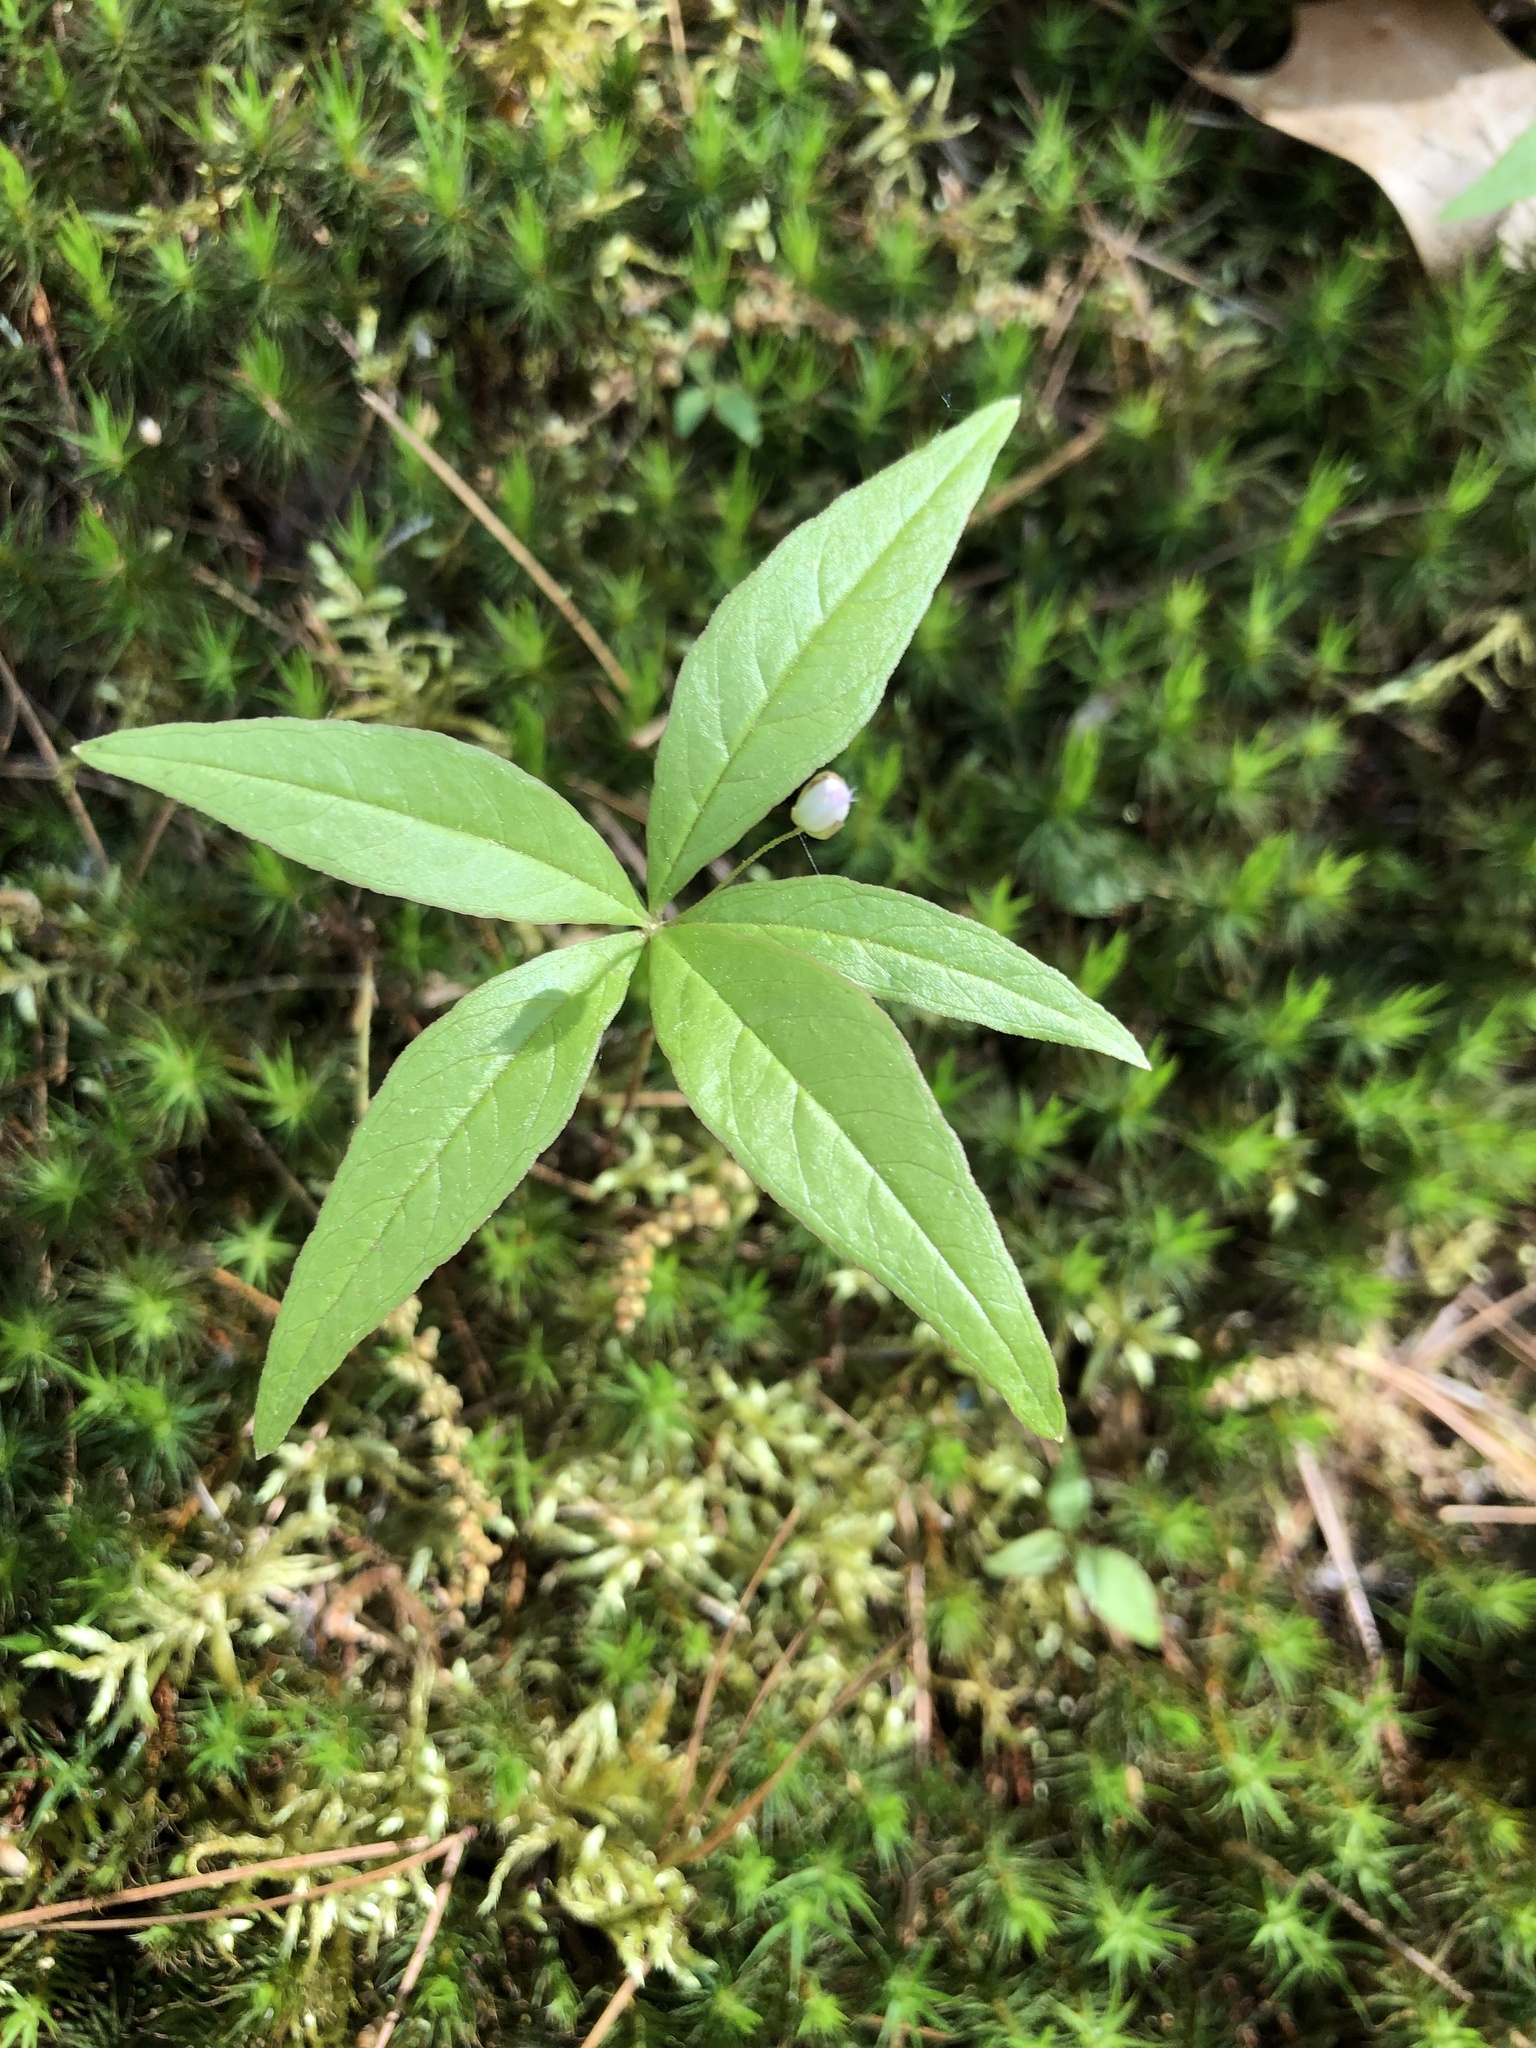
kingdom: Plantae
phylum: Tracheophyta
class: Magnoliopsida
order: Ericales
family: Primulaceae
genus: Lysimachia
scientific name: Lysimachia borealis
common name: American starflower
